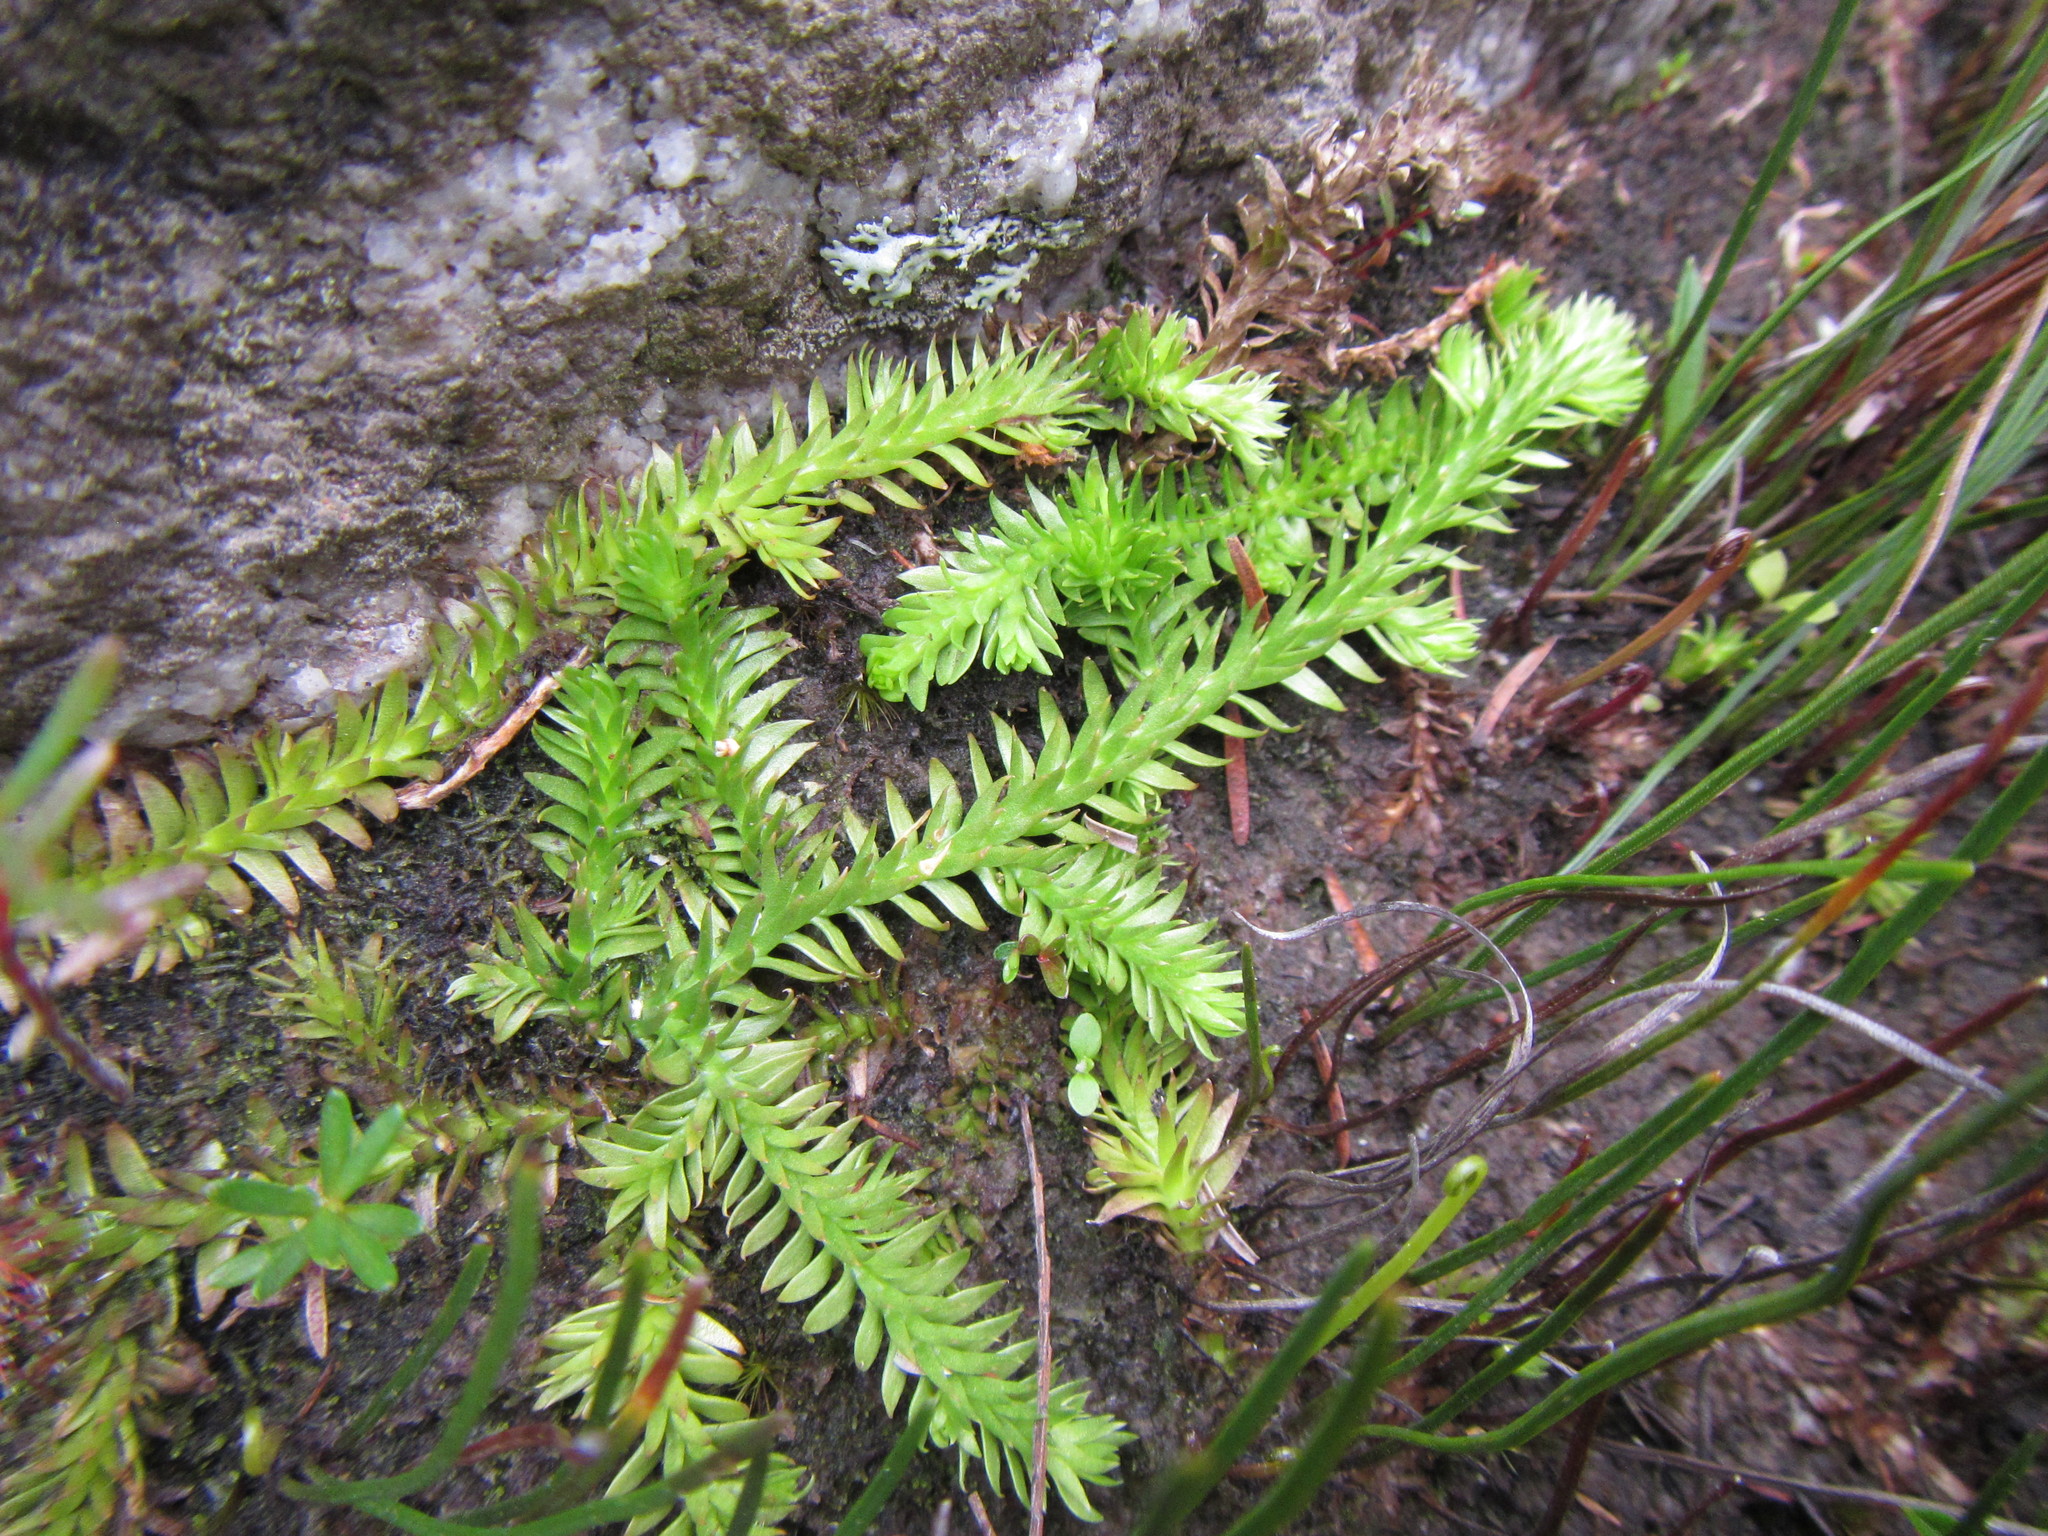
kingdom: Plantae
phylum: Tracheophyta
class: Lycopodiopsida
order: Lycopodiales
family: Lycopodiaceae
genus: Pseudolycopodiella
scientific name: Pseudolycopodiella caroliniana
